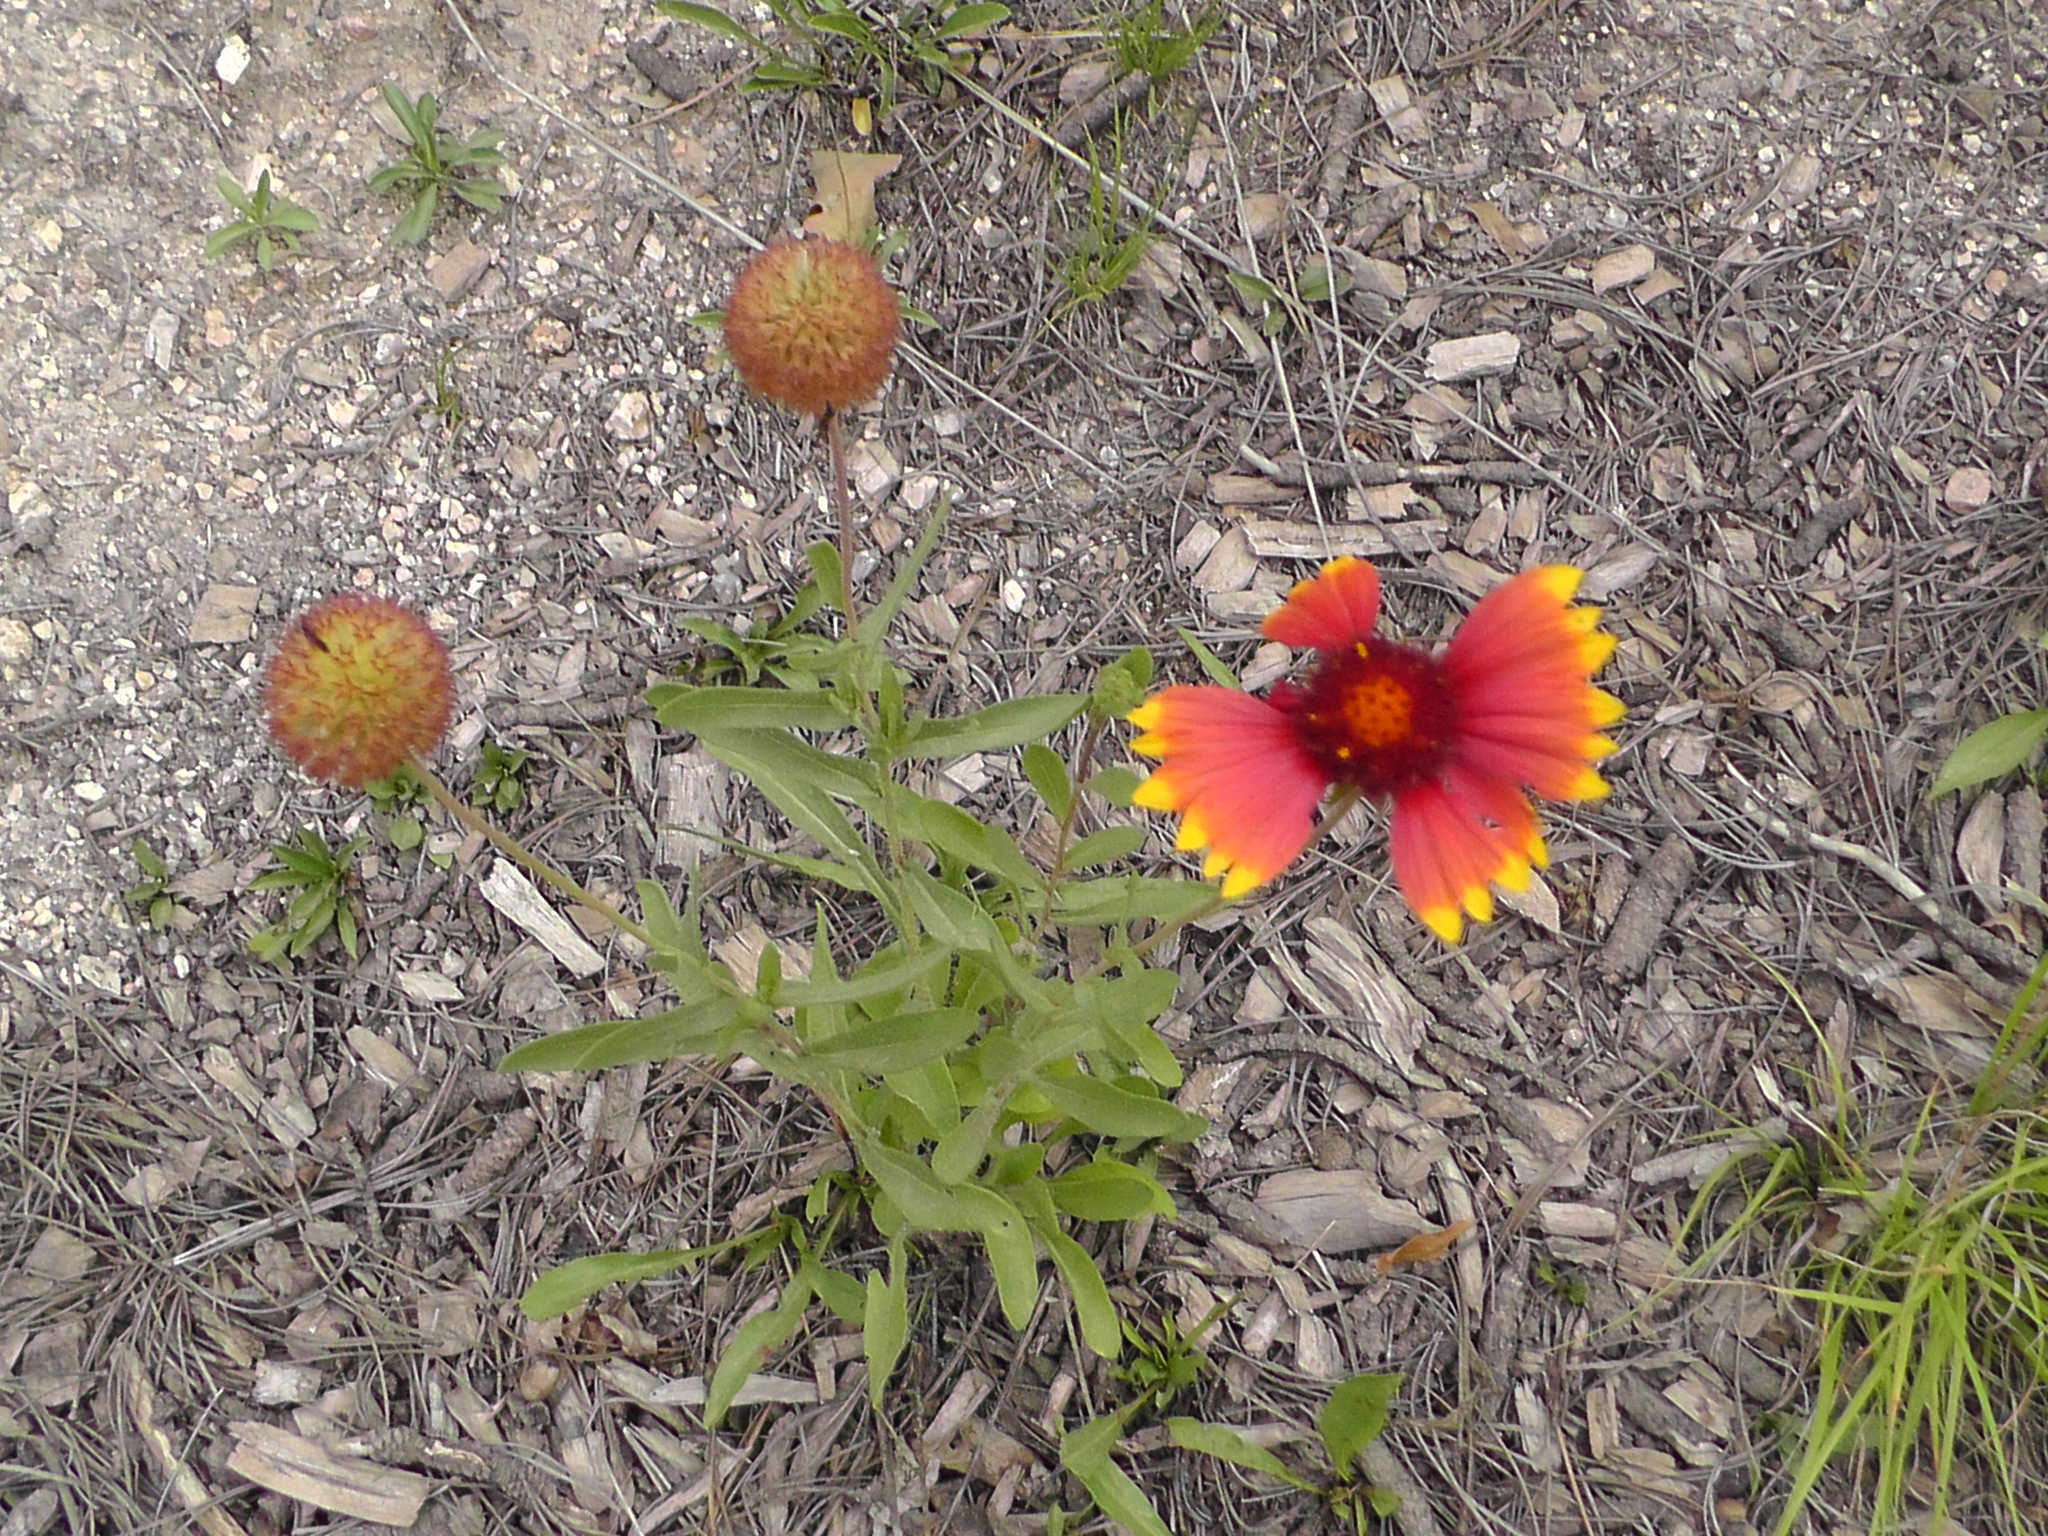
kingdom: Plantae
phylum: Tracheophyta
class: Magnoliopsida
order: Asterales
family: Asteraceae
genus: Gaillardia
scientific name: Gaillardia grandiflora
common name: Blanket flower
